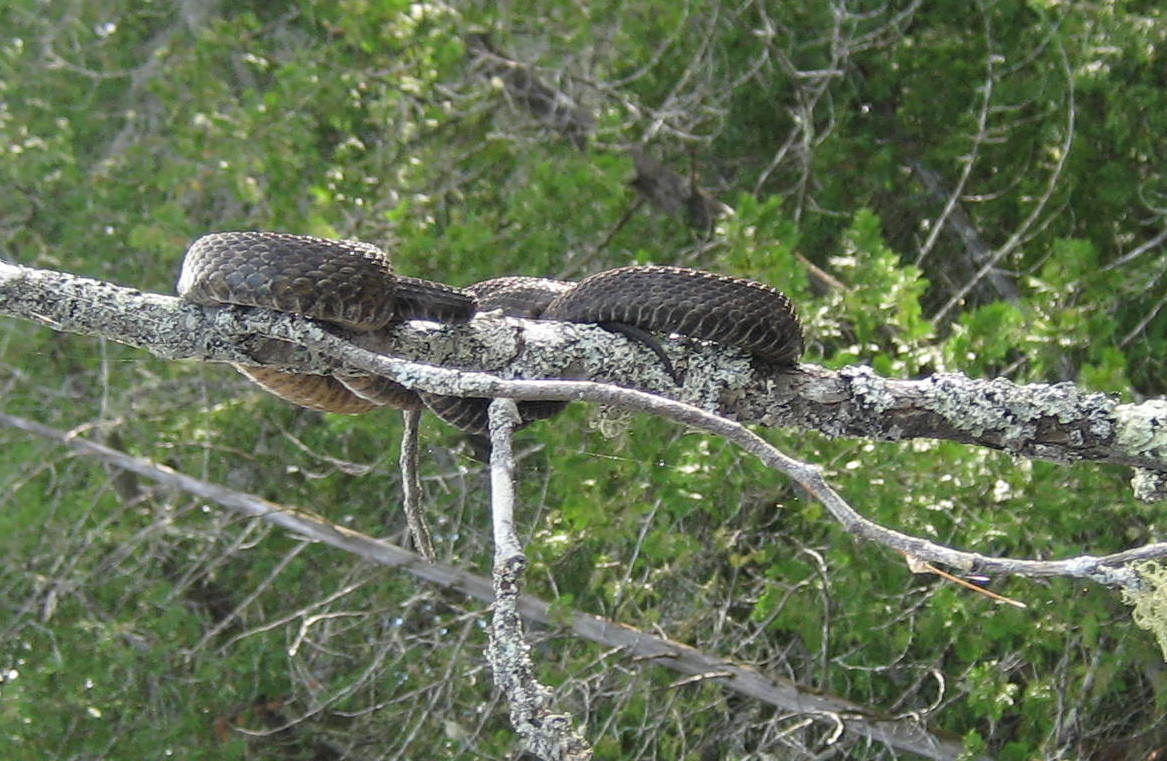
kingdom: Animalia
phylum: Chordata
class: Squamata
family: Colubridae
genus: Nerodia
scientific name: Nerodia sipedon
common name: Northern water snake
